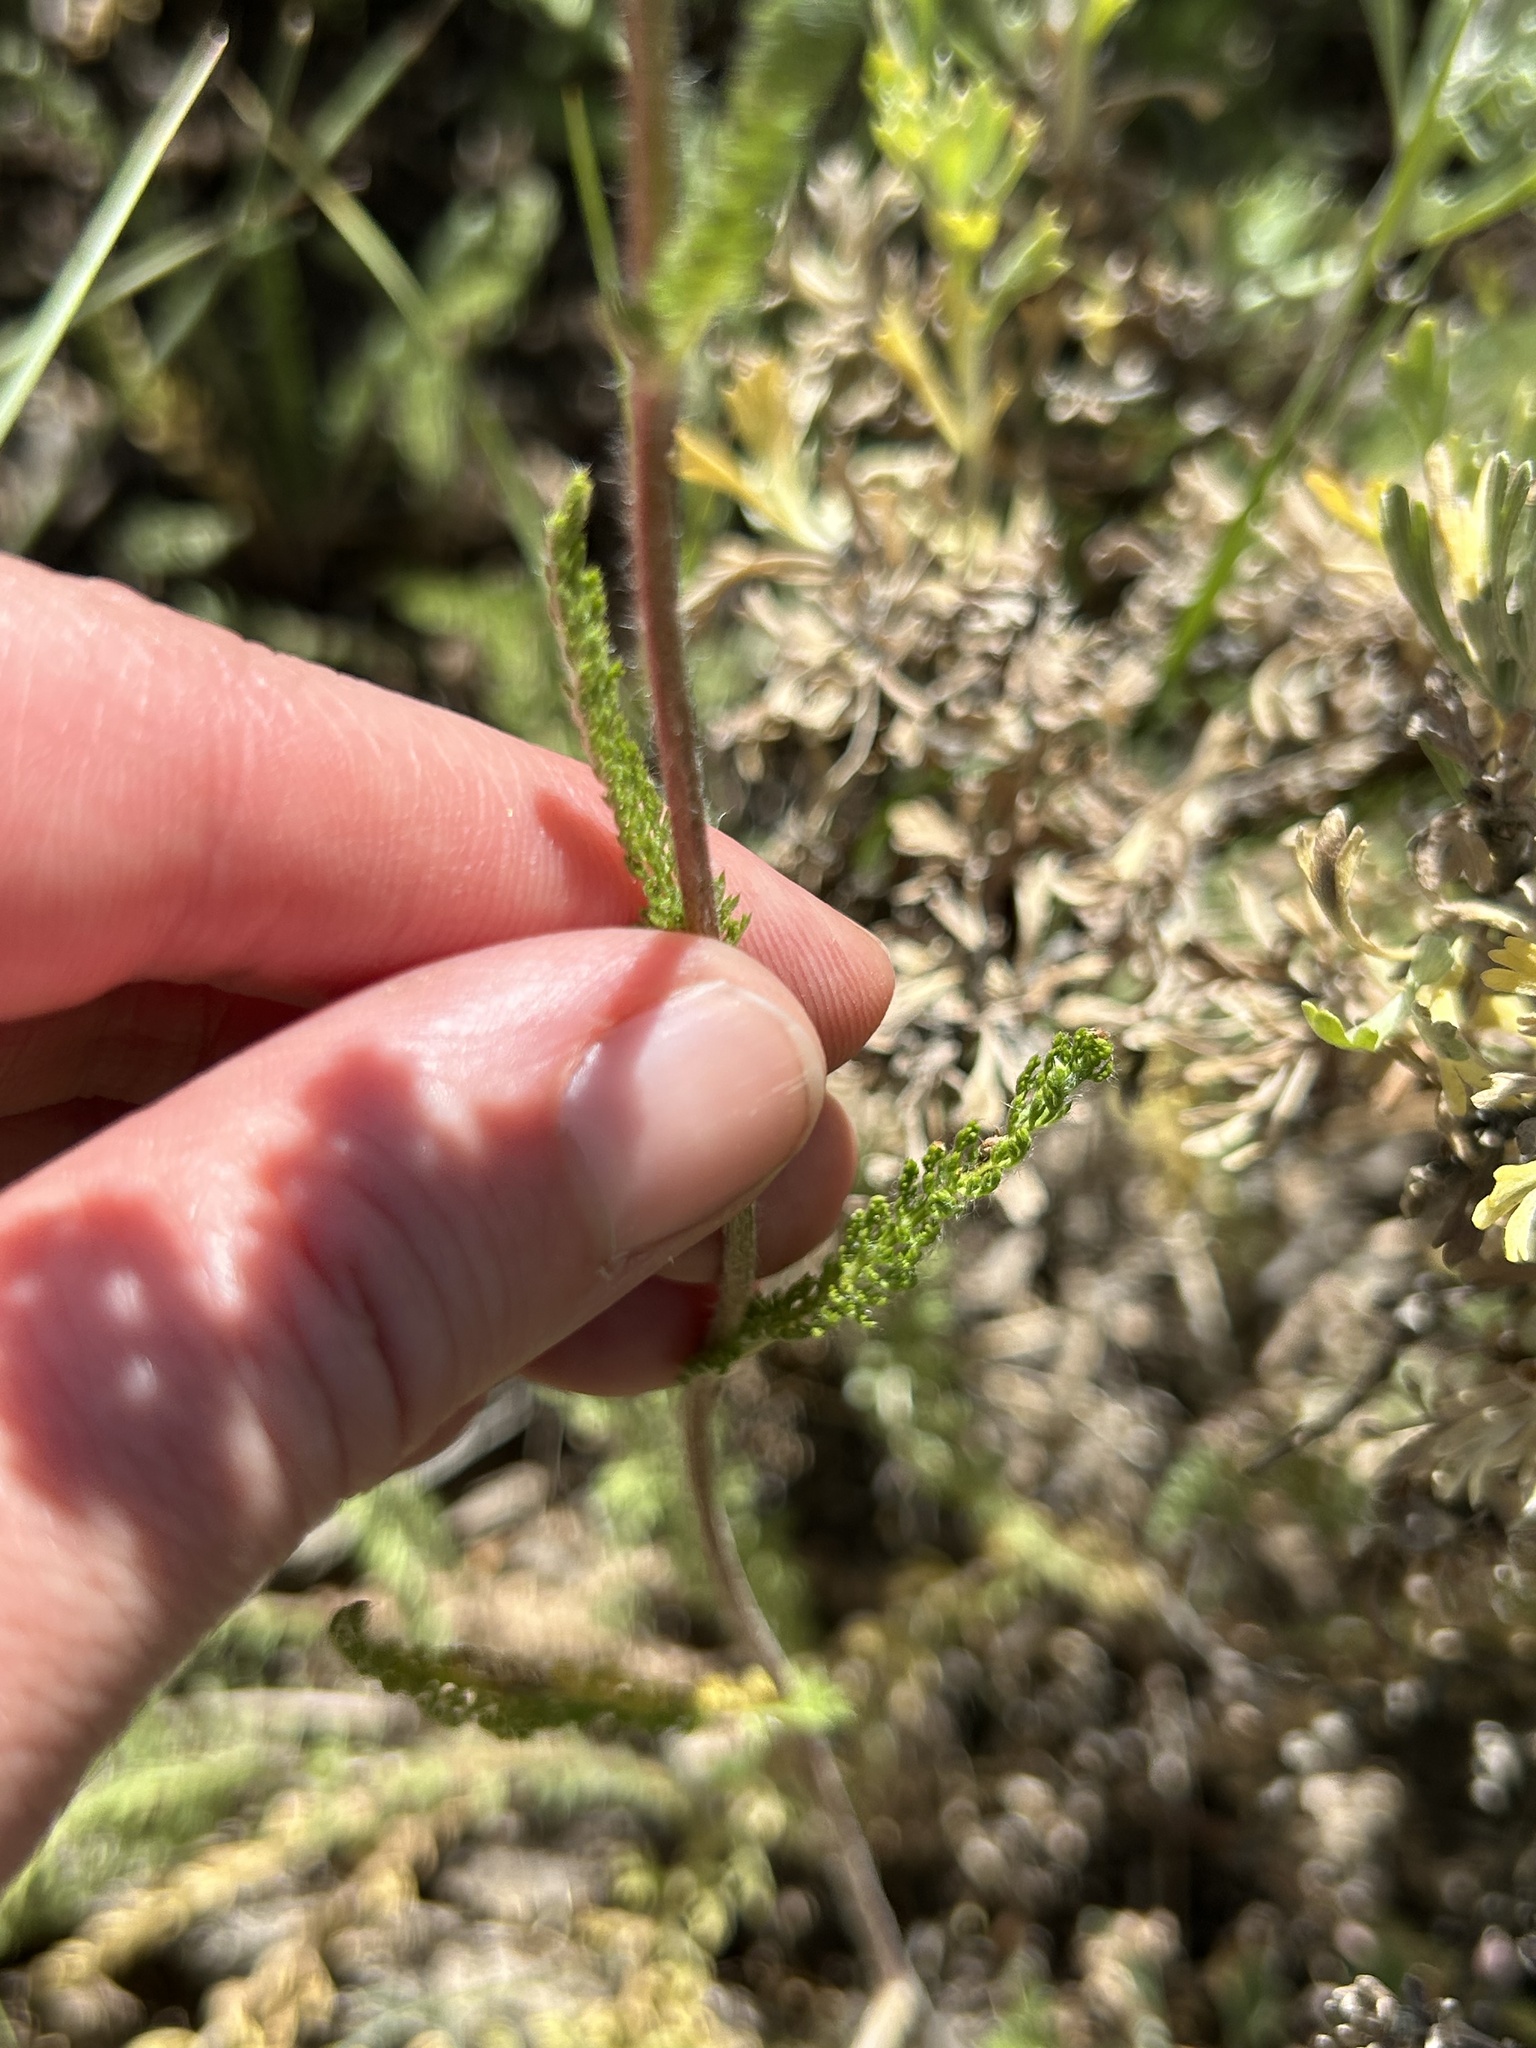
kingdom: Plantae
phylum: Tracheophyta
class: Magnoliopsida
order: Asterales
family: Asteraceae
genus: Achillea
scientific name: Achillea millefolium
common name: Yarrow
